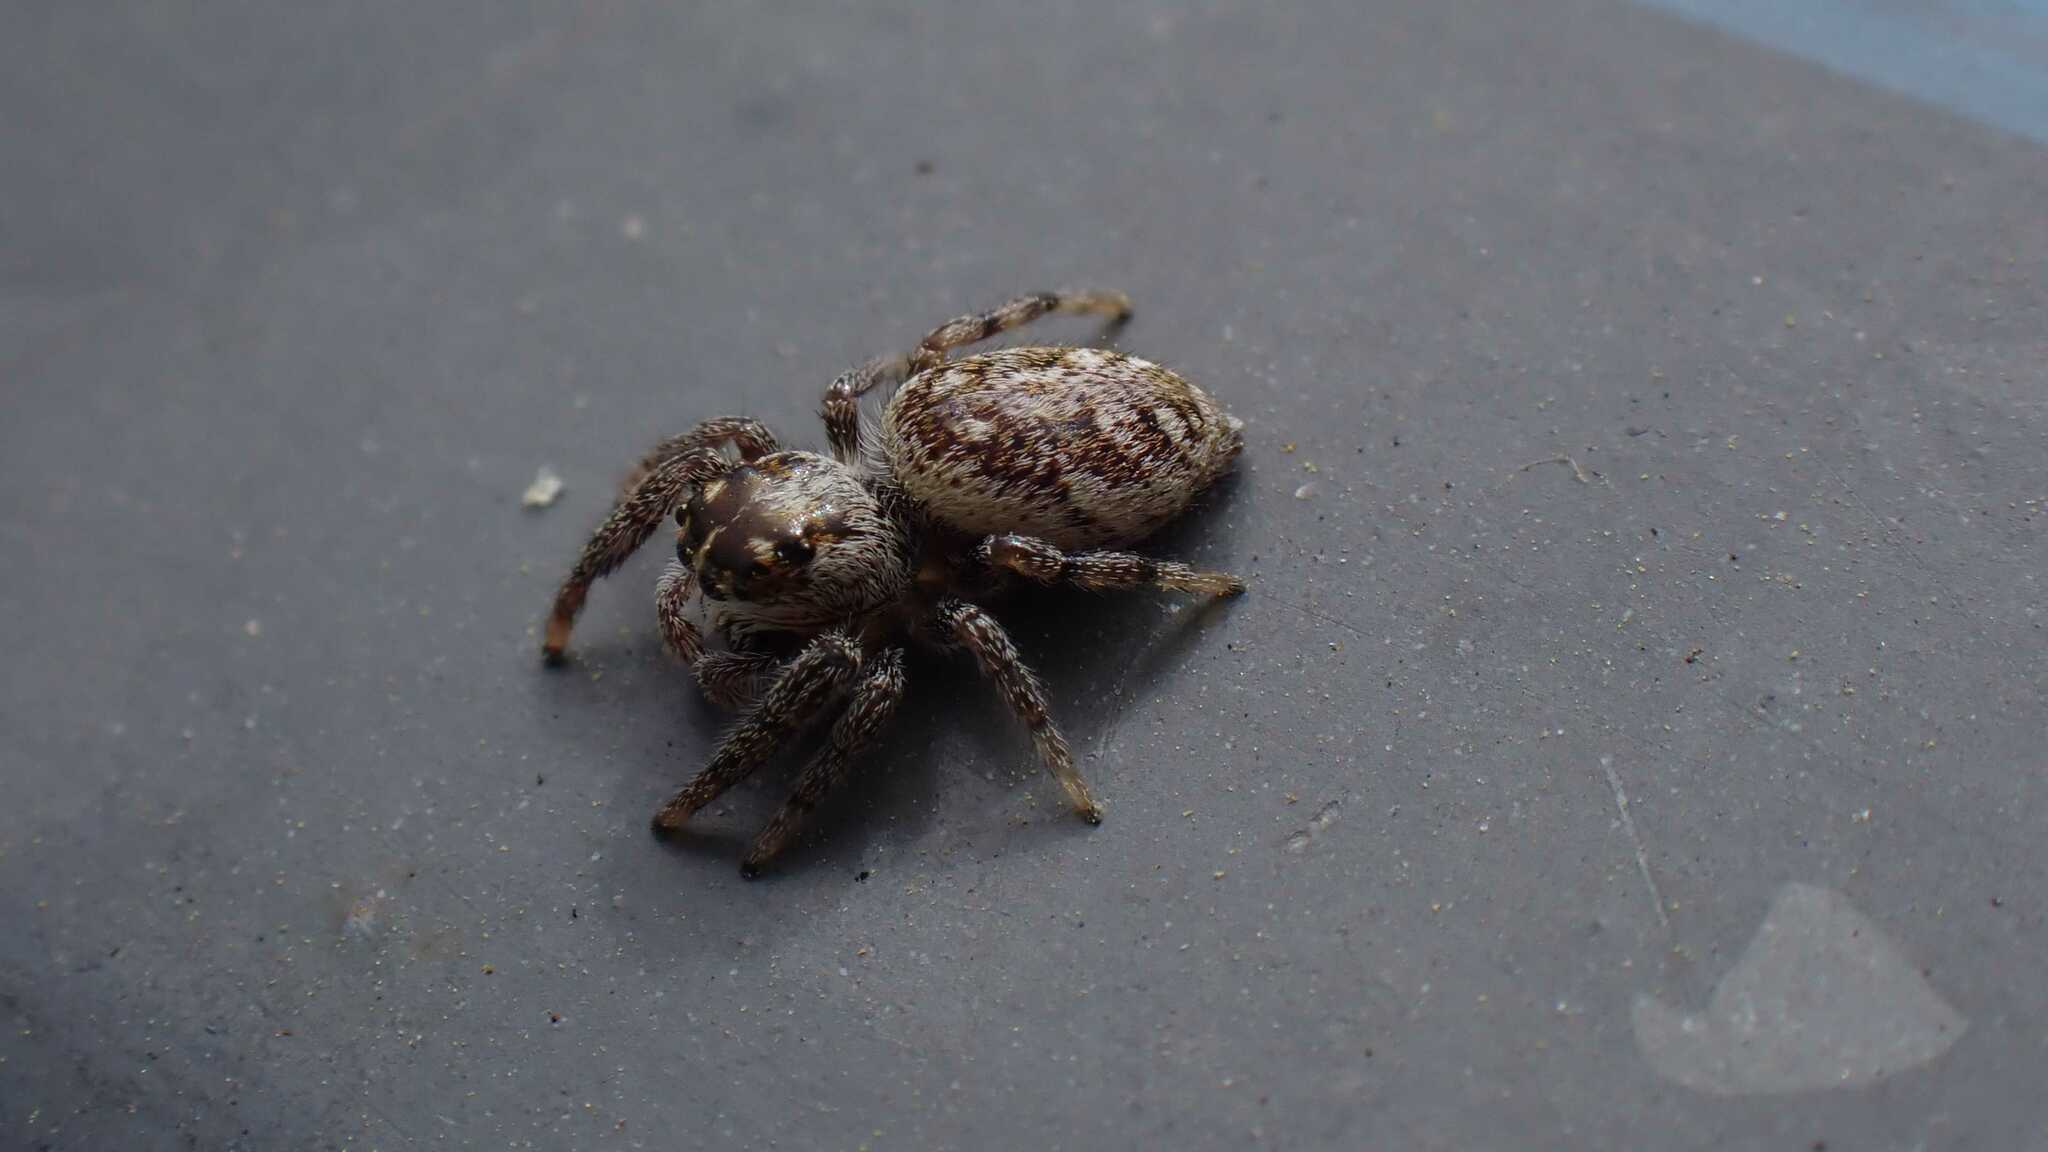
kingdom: Animalia
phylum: Arthropoda
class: Arachnida
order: Araneae
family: Salticidae
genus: Macaroeris
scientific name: Macaroeris nidicolens
